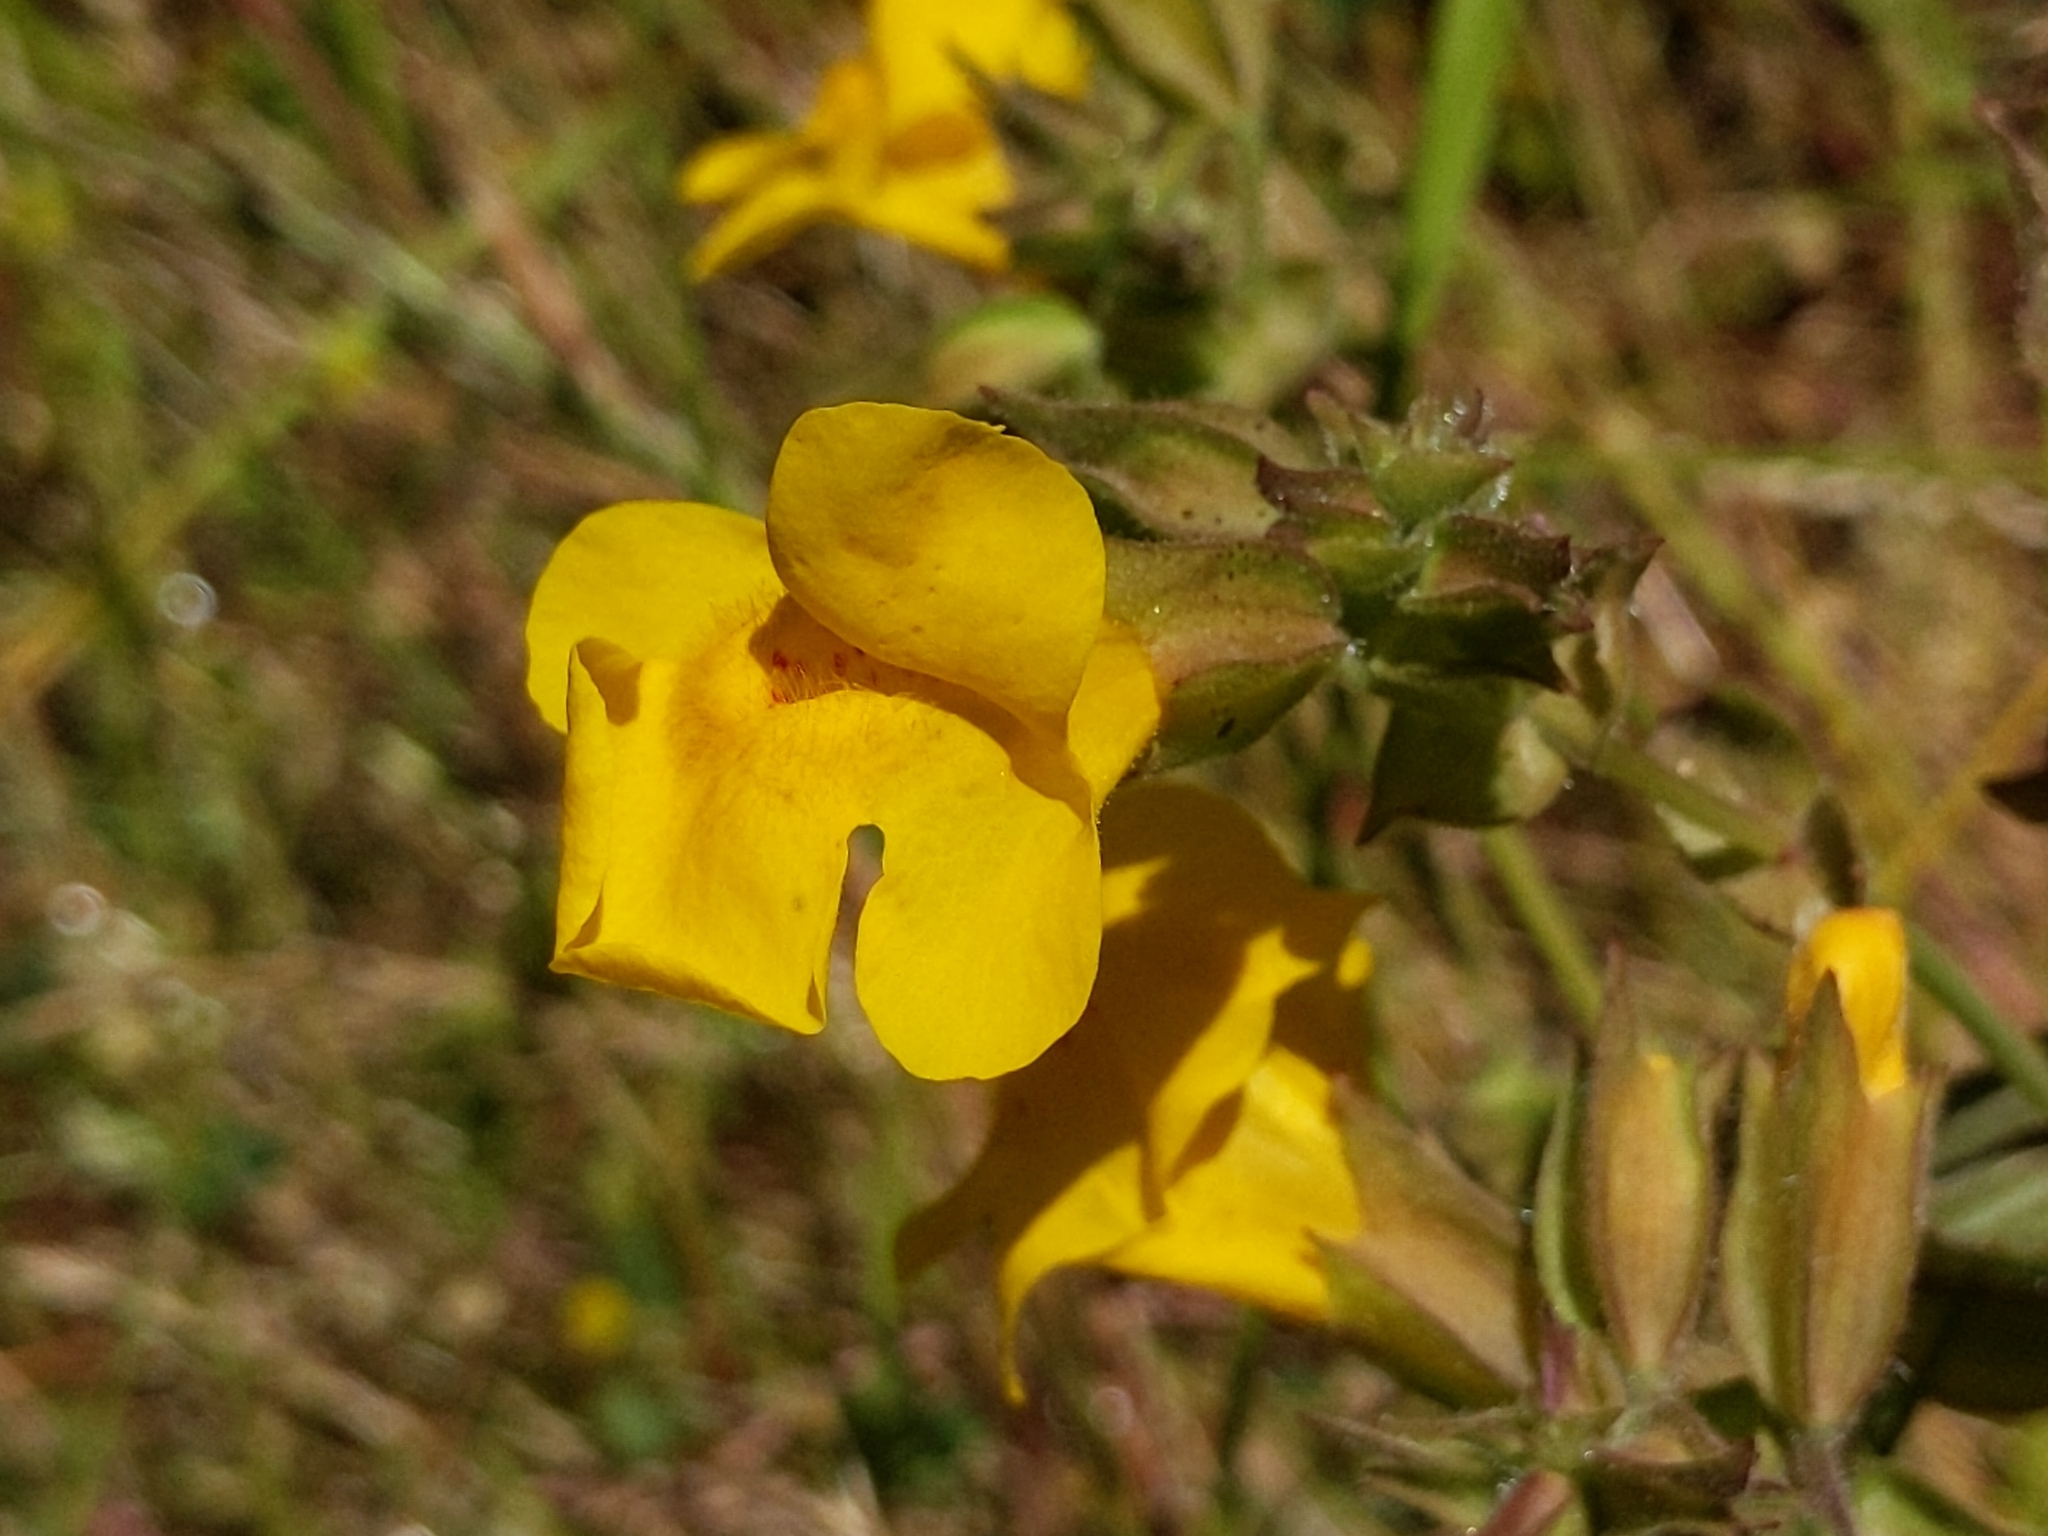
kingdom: Plantae
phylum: Tracheophyta
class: Magnoliopsida
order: Lamiales
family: Phrymaceae
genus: Erythranthe
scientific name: Erythranthe guttata
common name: Monkeyflower
